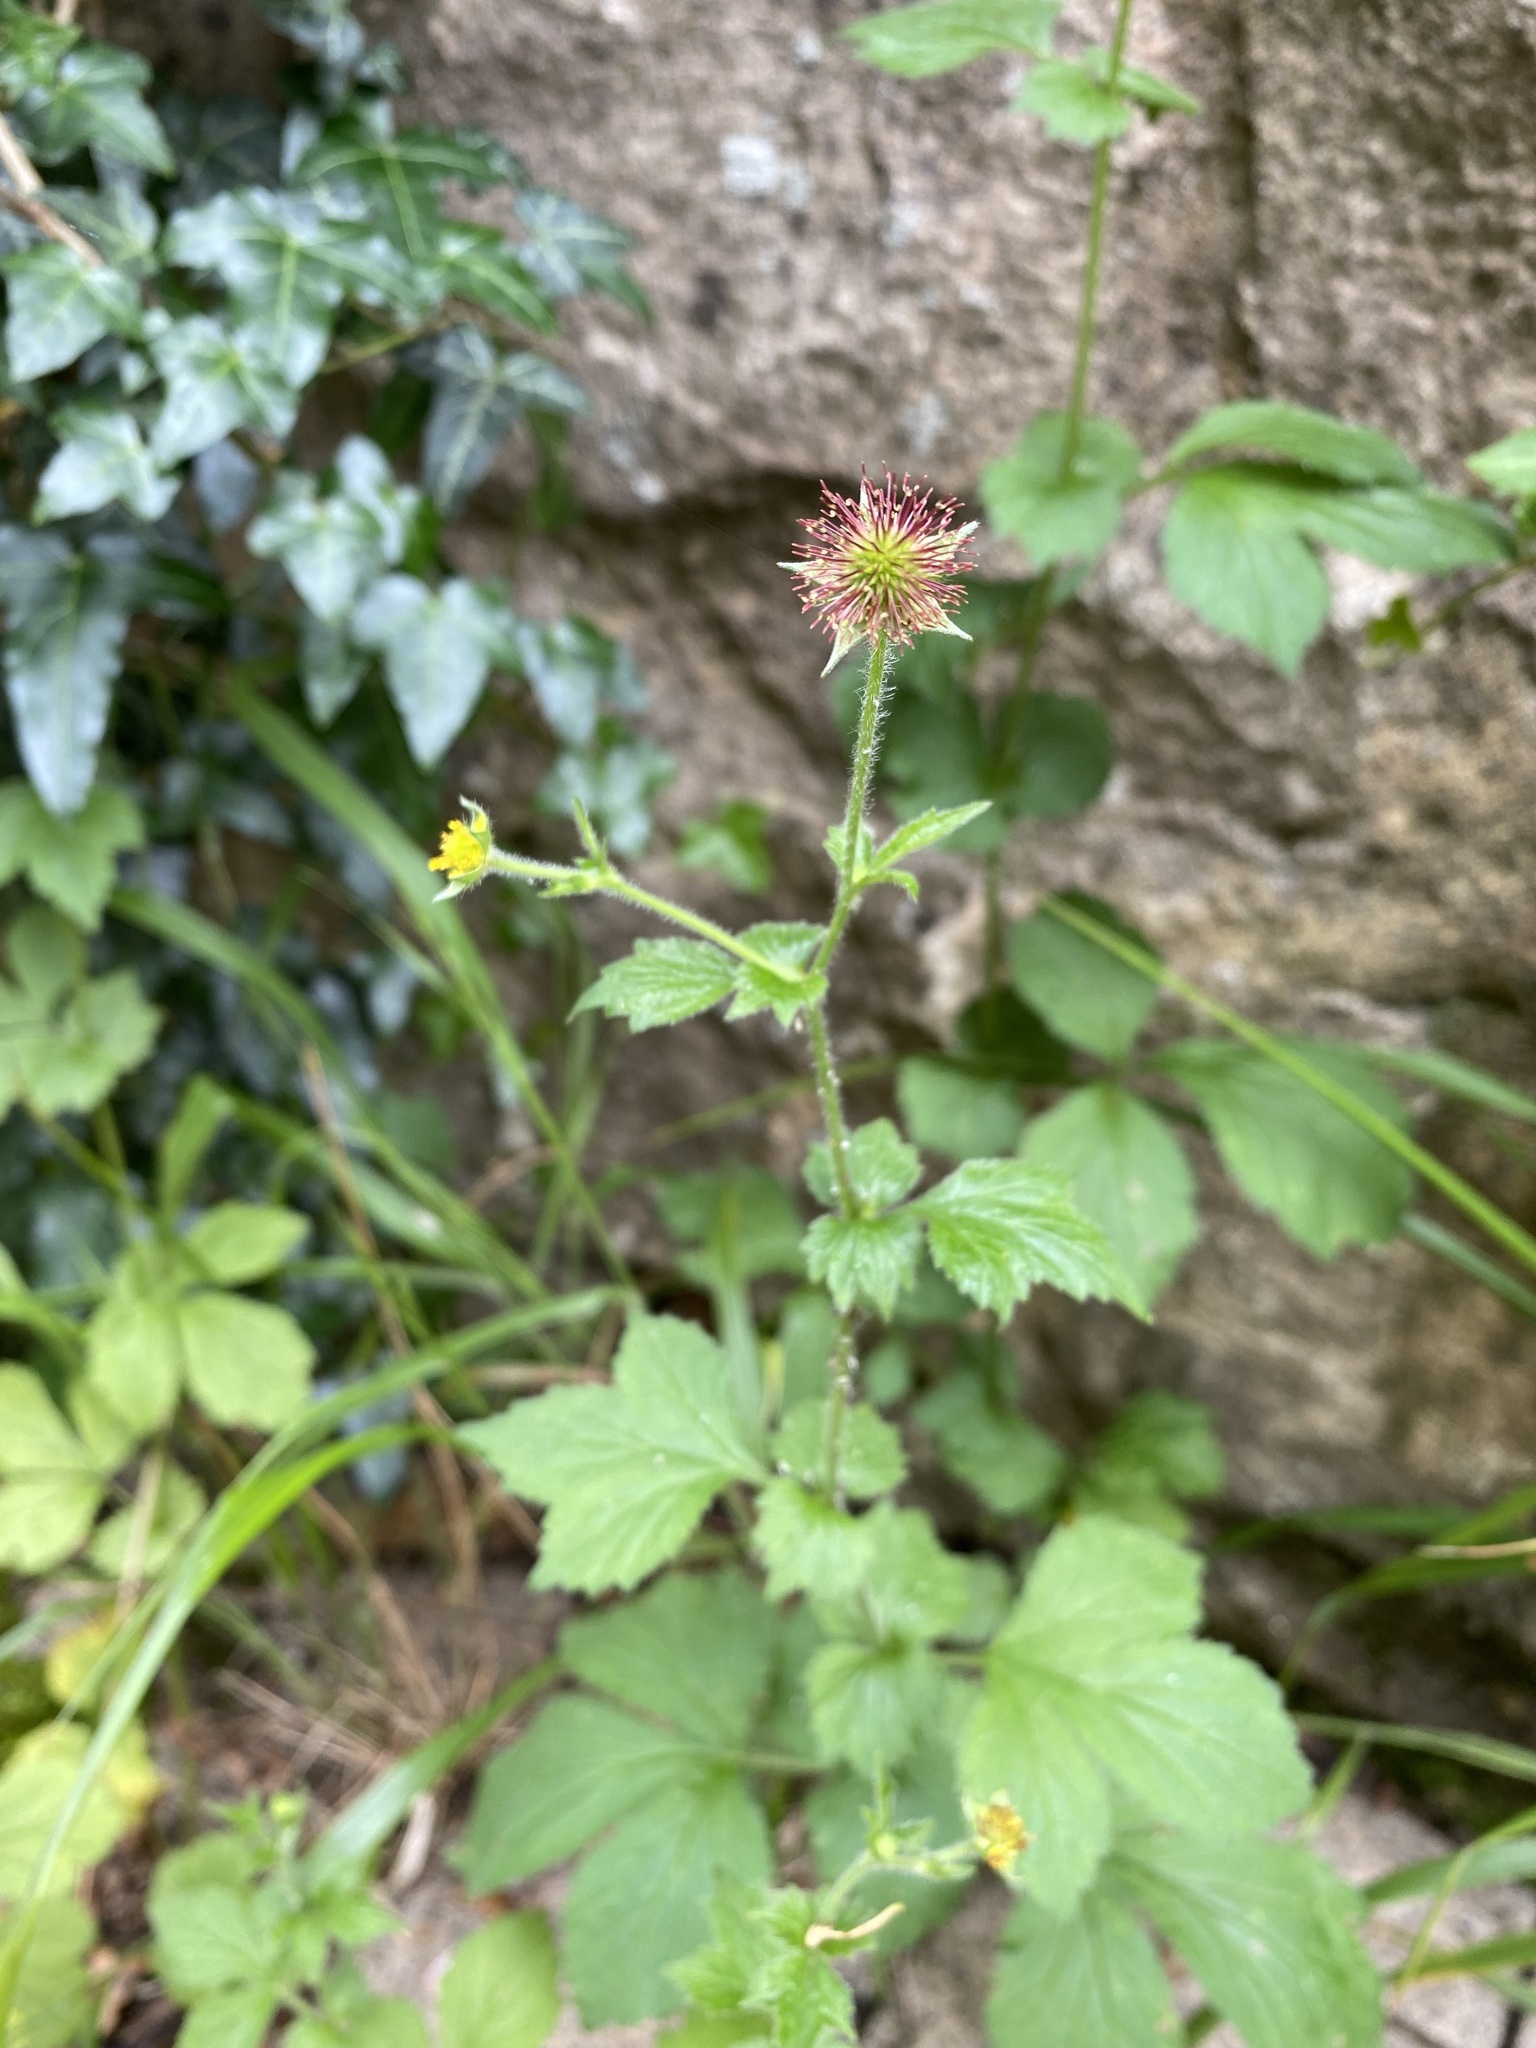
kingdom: Plantae
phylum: Tracheophyta
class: Magnoliopsida
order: Rosales
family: Rosaceae
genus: Geum
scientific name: Geum urbanum
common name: Wood avens
